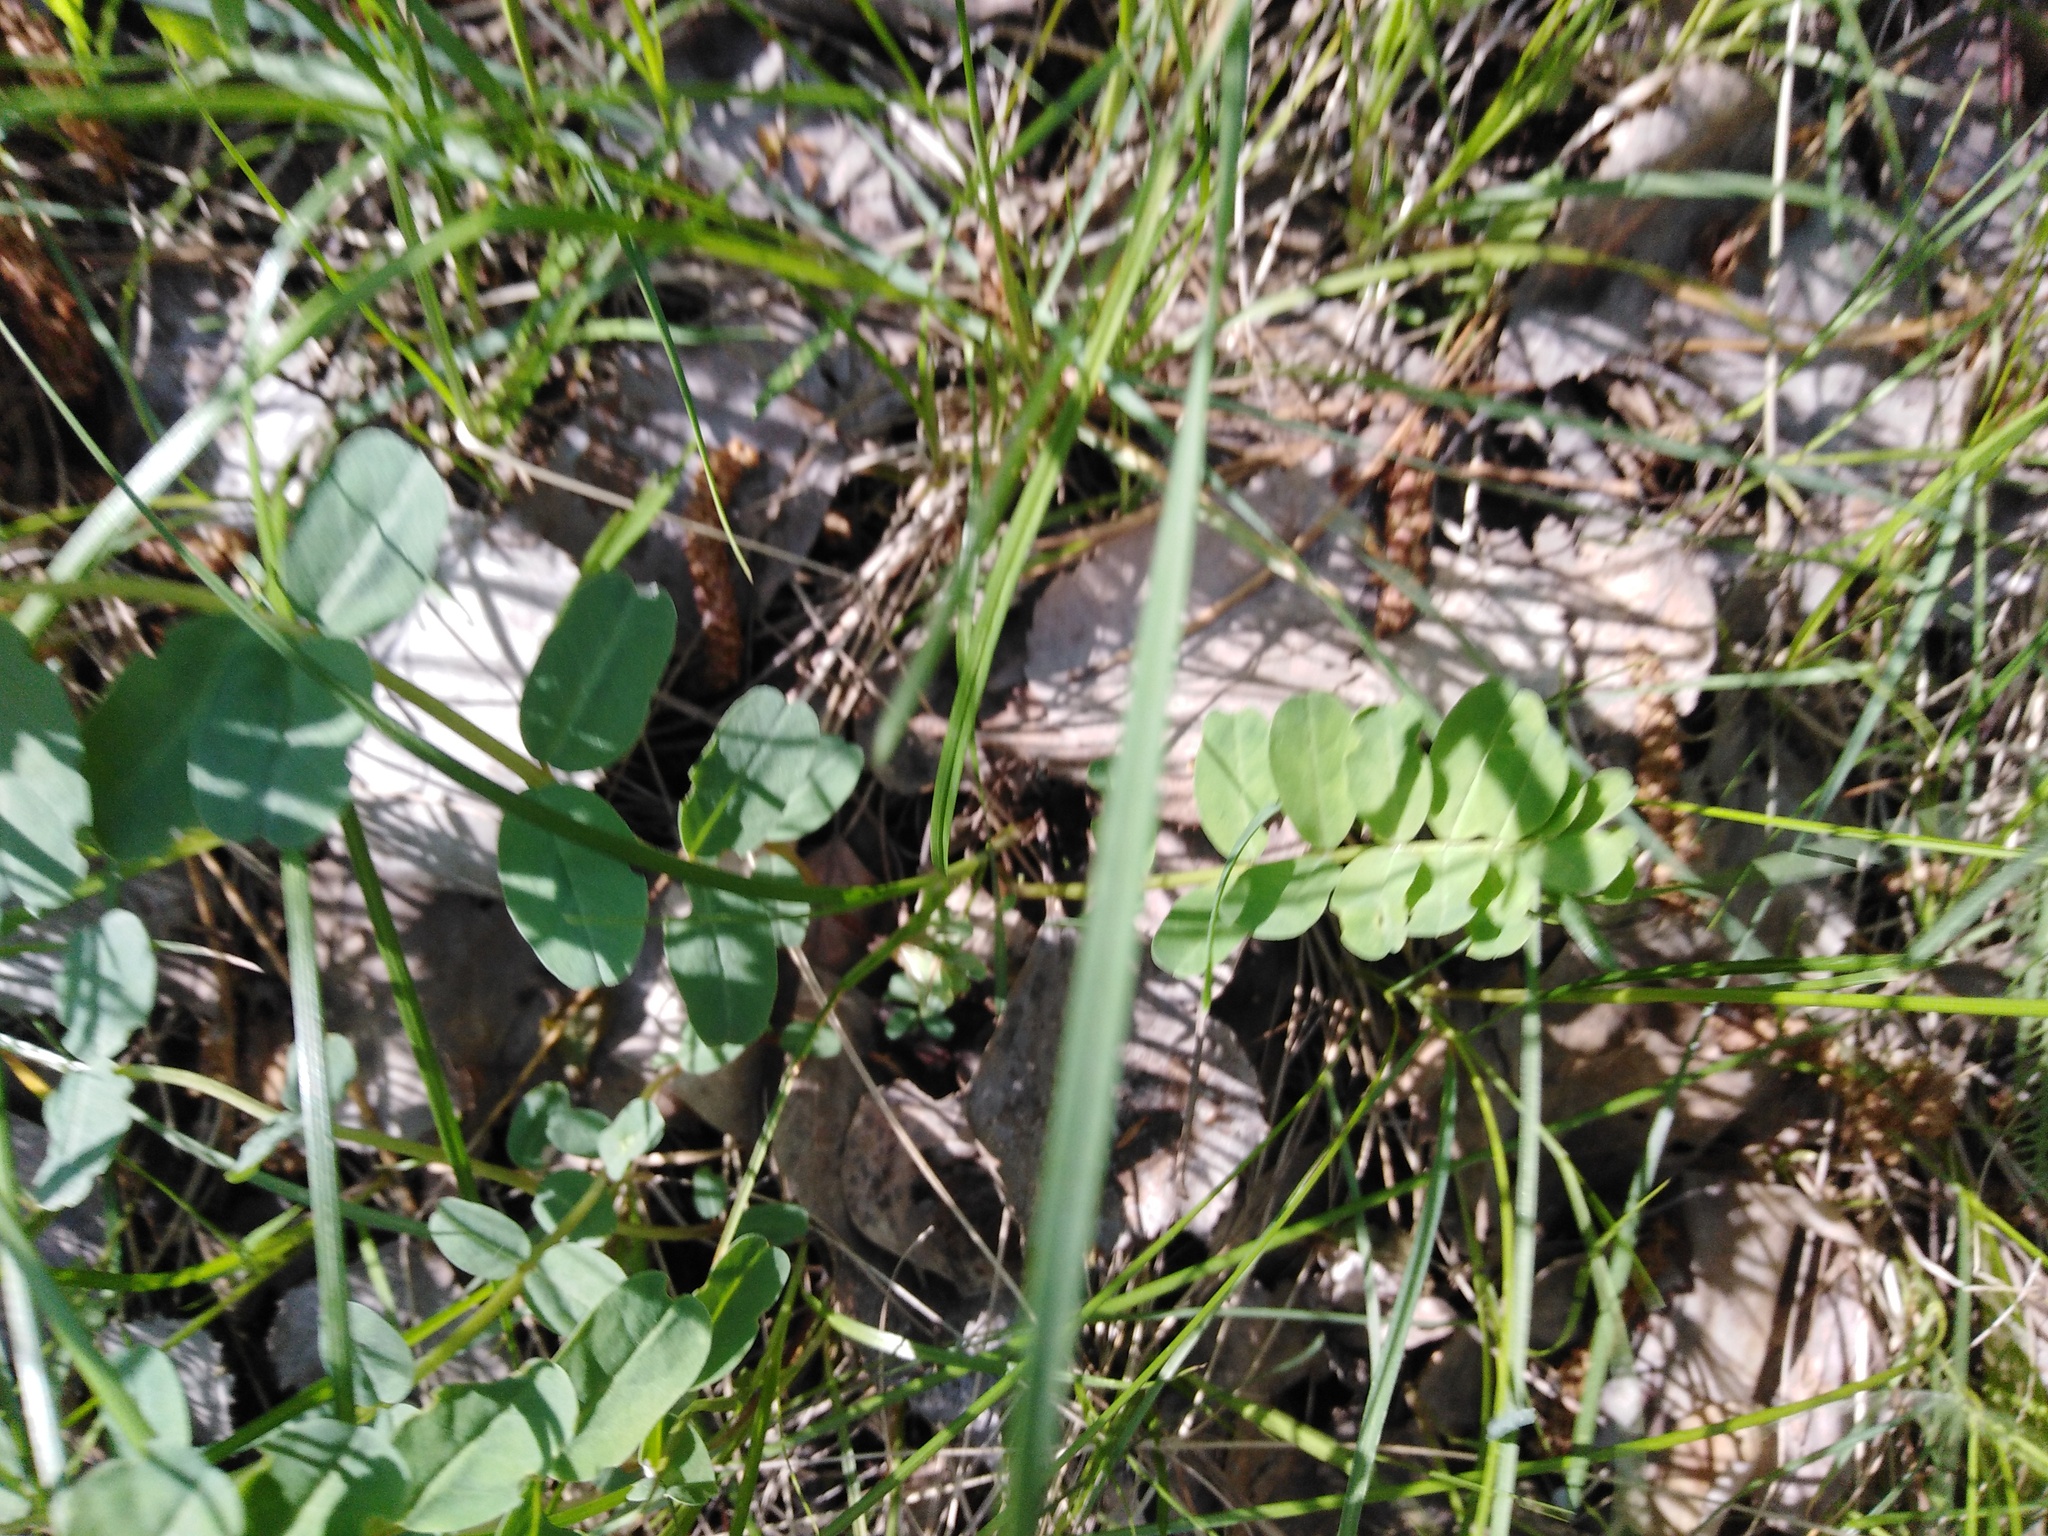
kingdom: Plantae
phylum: Tracheophyta
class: Magnoliopsida
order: Fabales
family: Fabaceae
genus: Coronilla
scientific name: Coronilla varia
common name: Crownvetch
